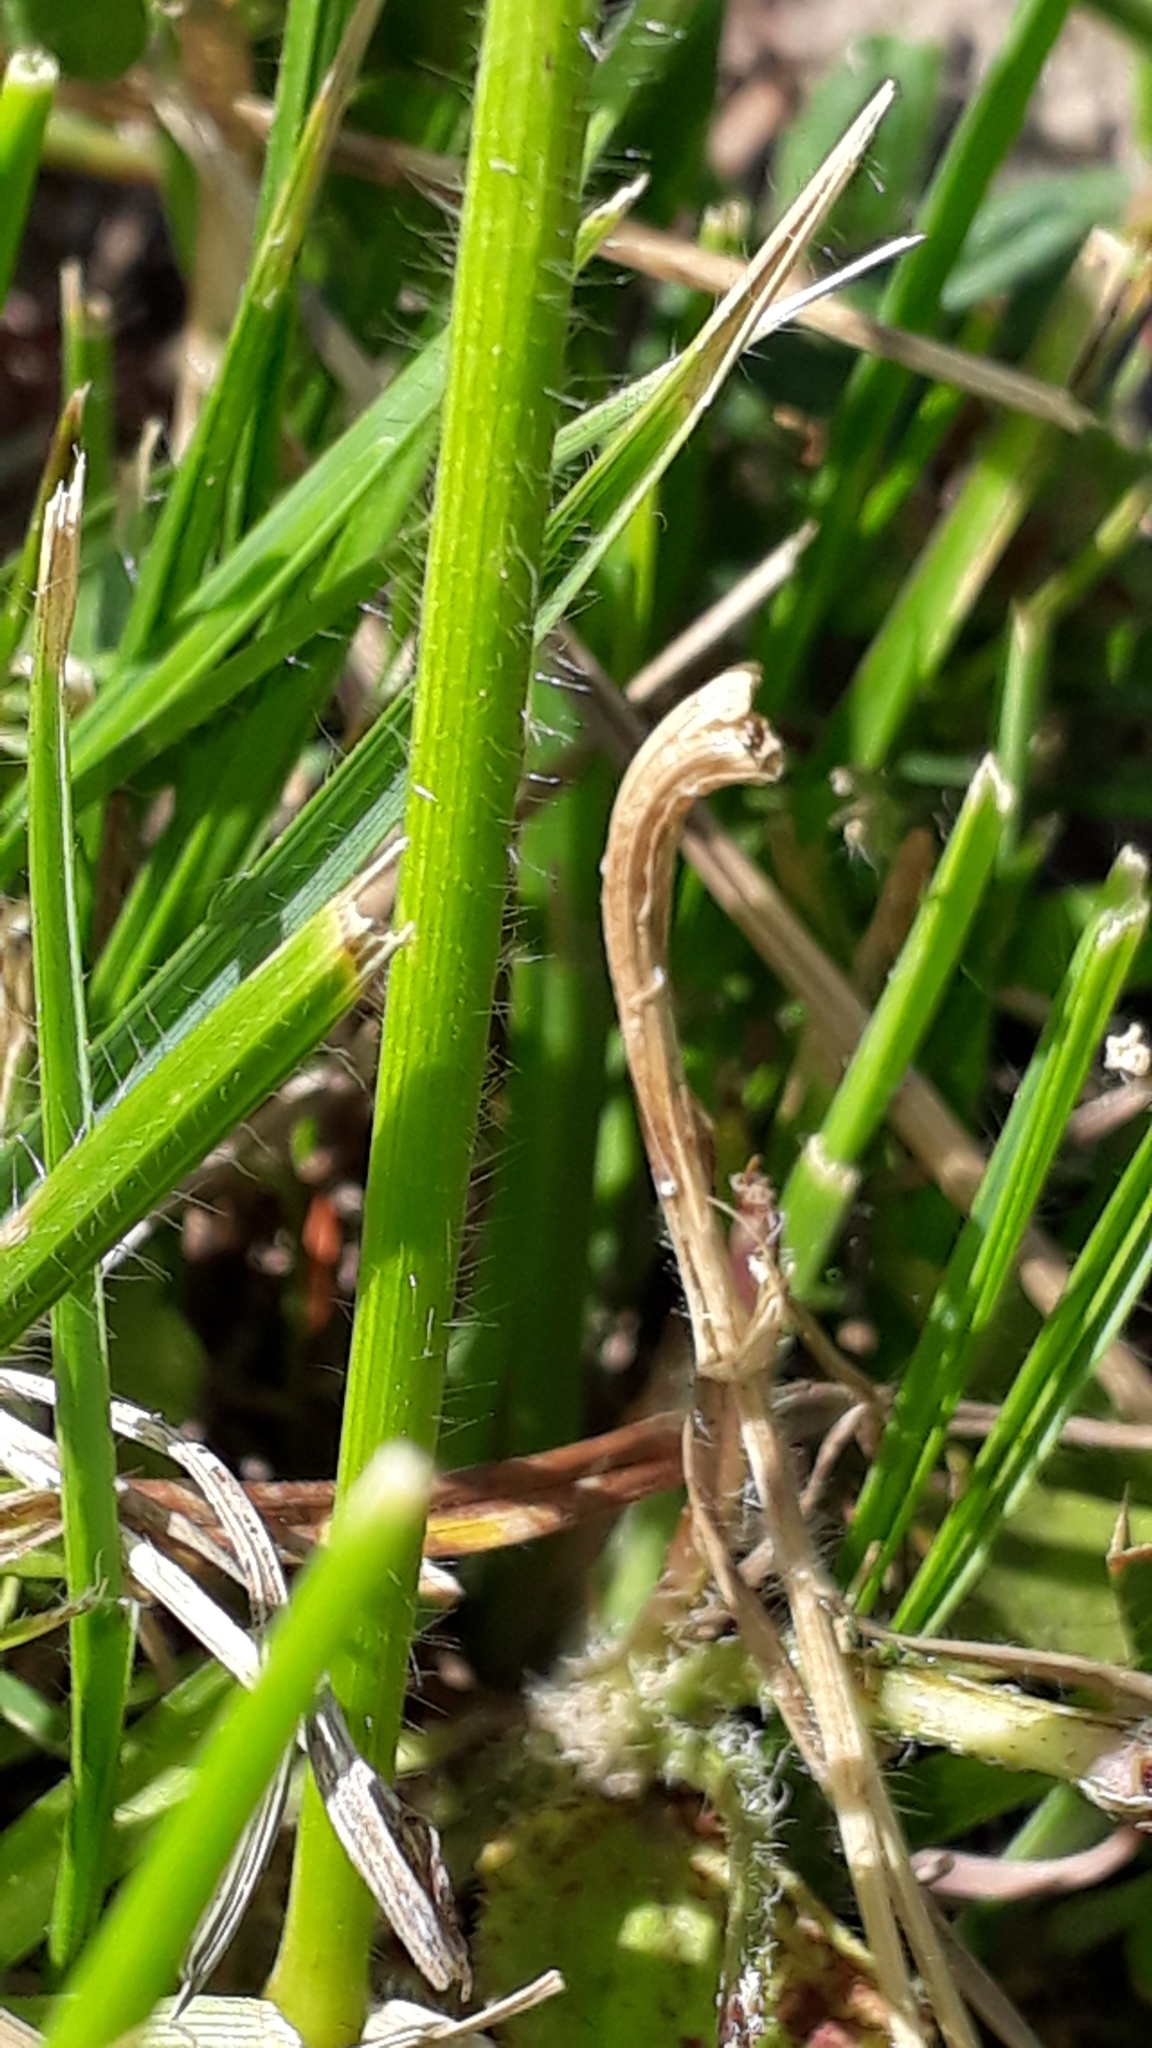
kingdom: Plantae
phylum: Tracheophyta
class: Liliopsida
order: Poales
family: Poaceae
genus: Bromus
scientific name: Bromus erectus
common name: Erect brome
